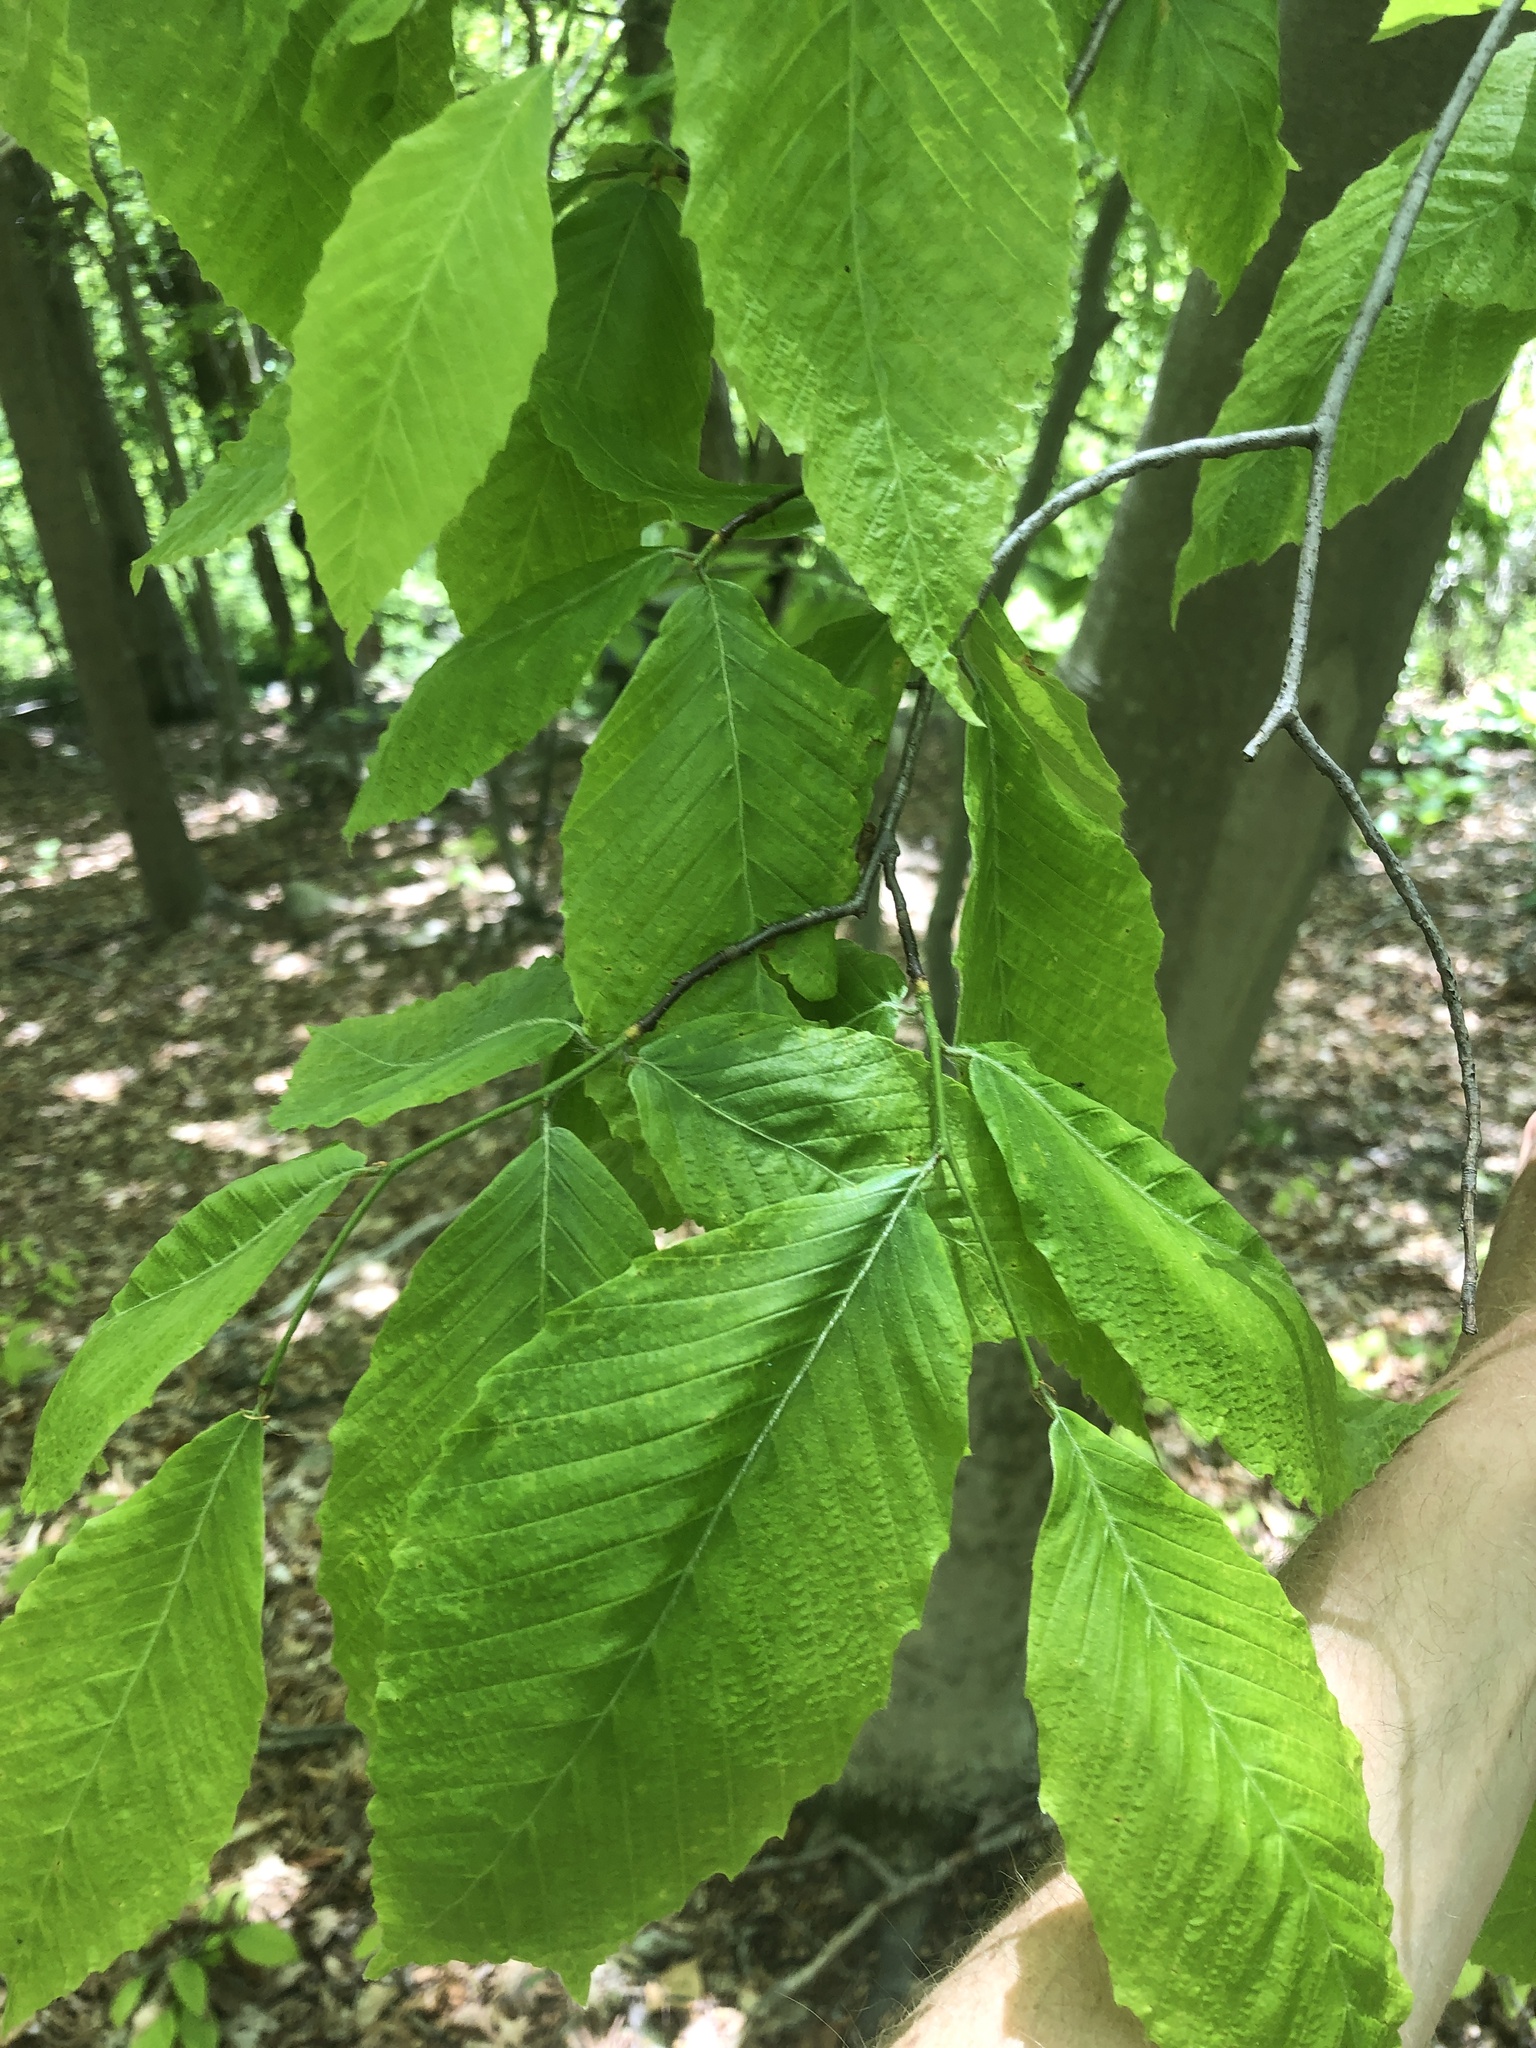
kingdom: Plantae
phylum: Tracheophyta
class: Magnoliopsida
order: Fagales
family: Fagaceae
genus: Fagus
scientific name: Fagus grandifolia
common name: American beech
